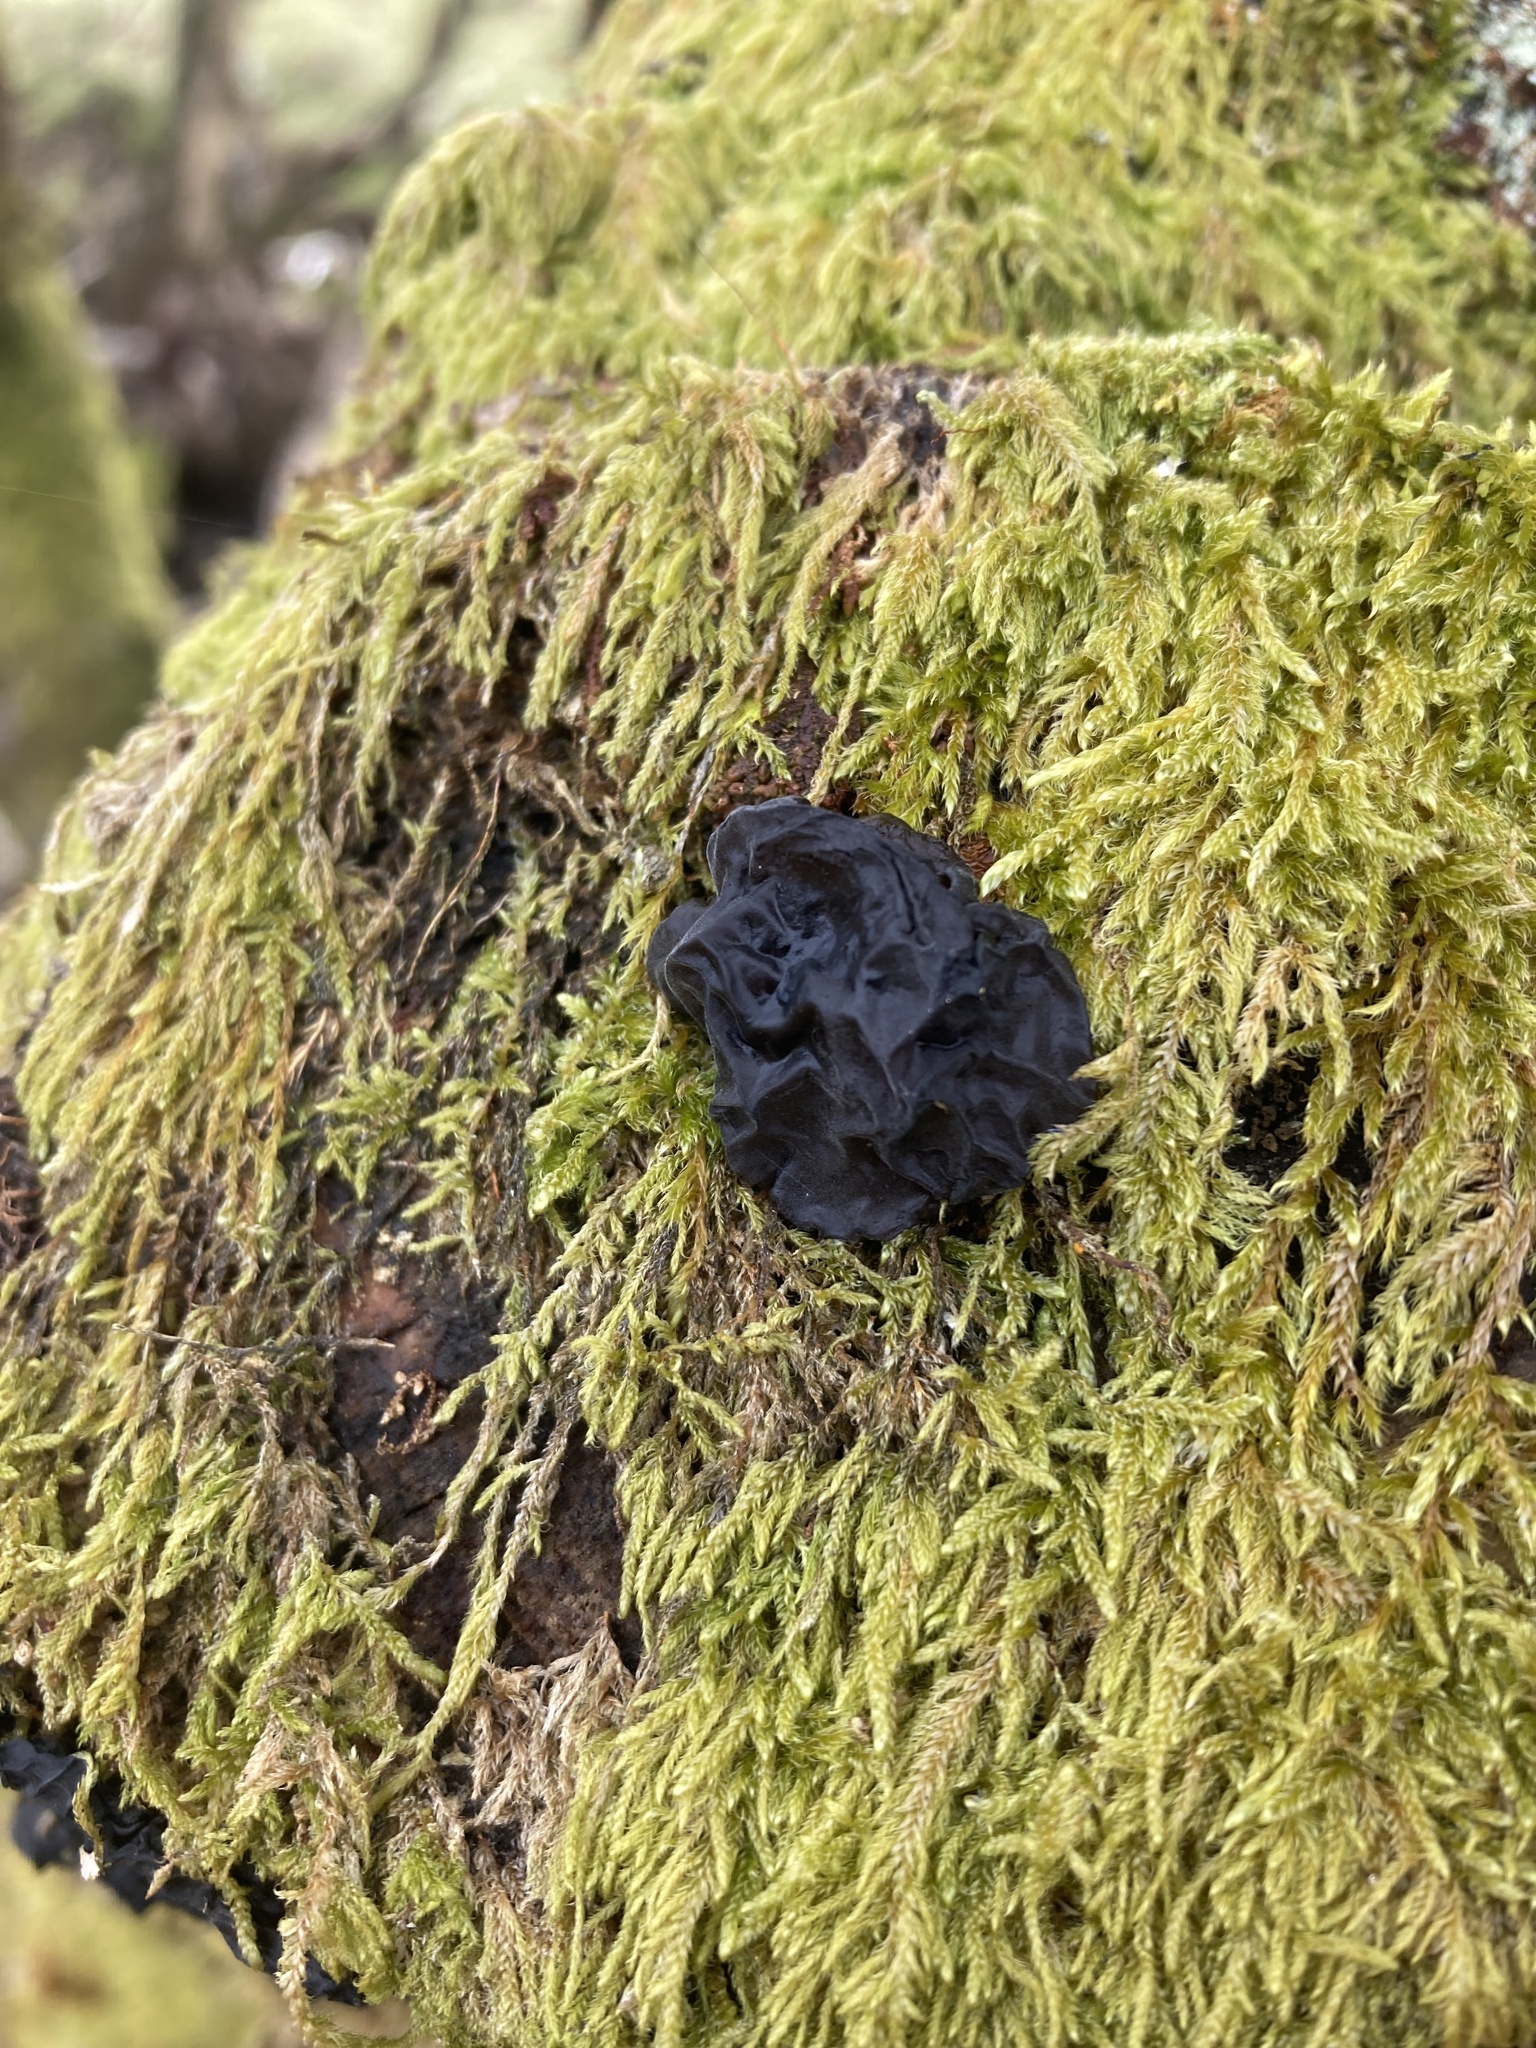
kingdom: Fungi
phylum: Basidiomycota
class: Agaricomycetes
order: Auriculariales
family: Auriculariaceae
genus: Exidia
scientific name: Exidia glandulosa
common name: Witches' butter
